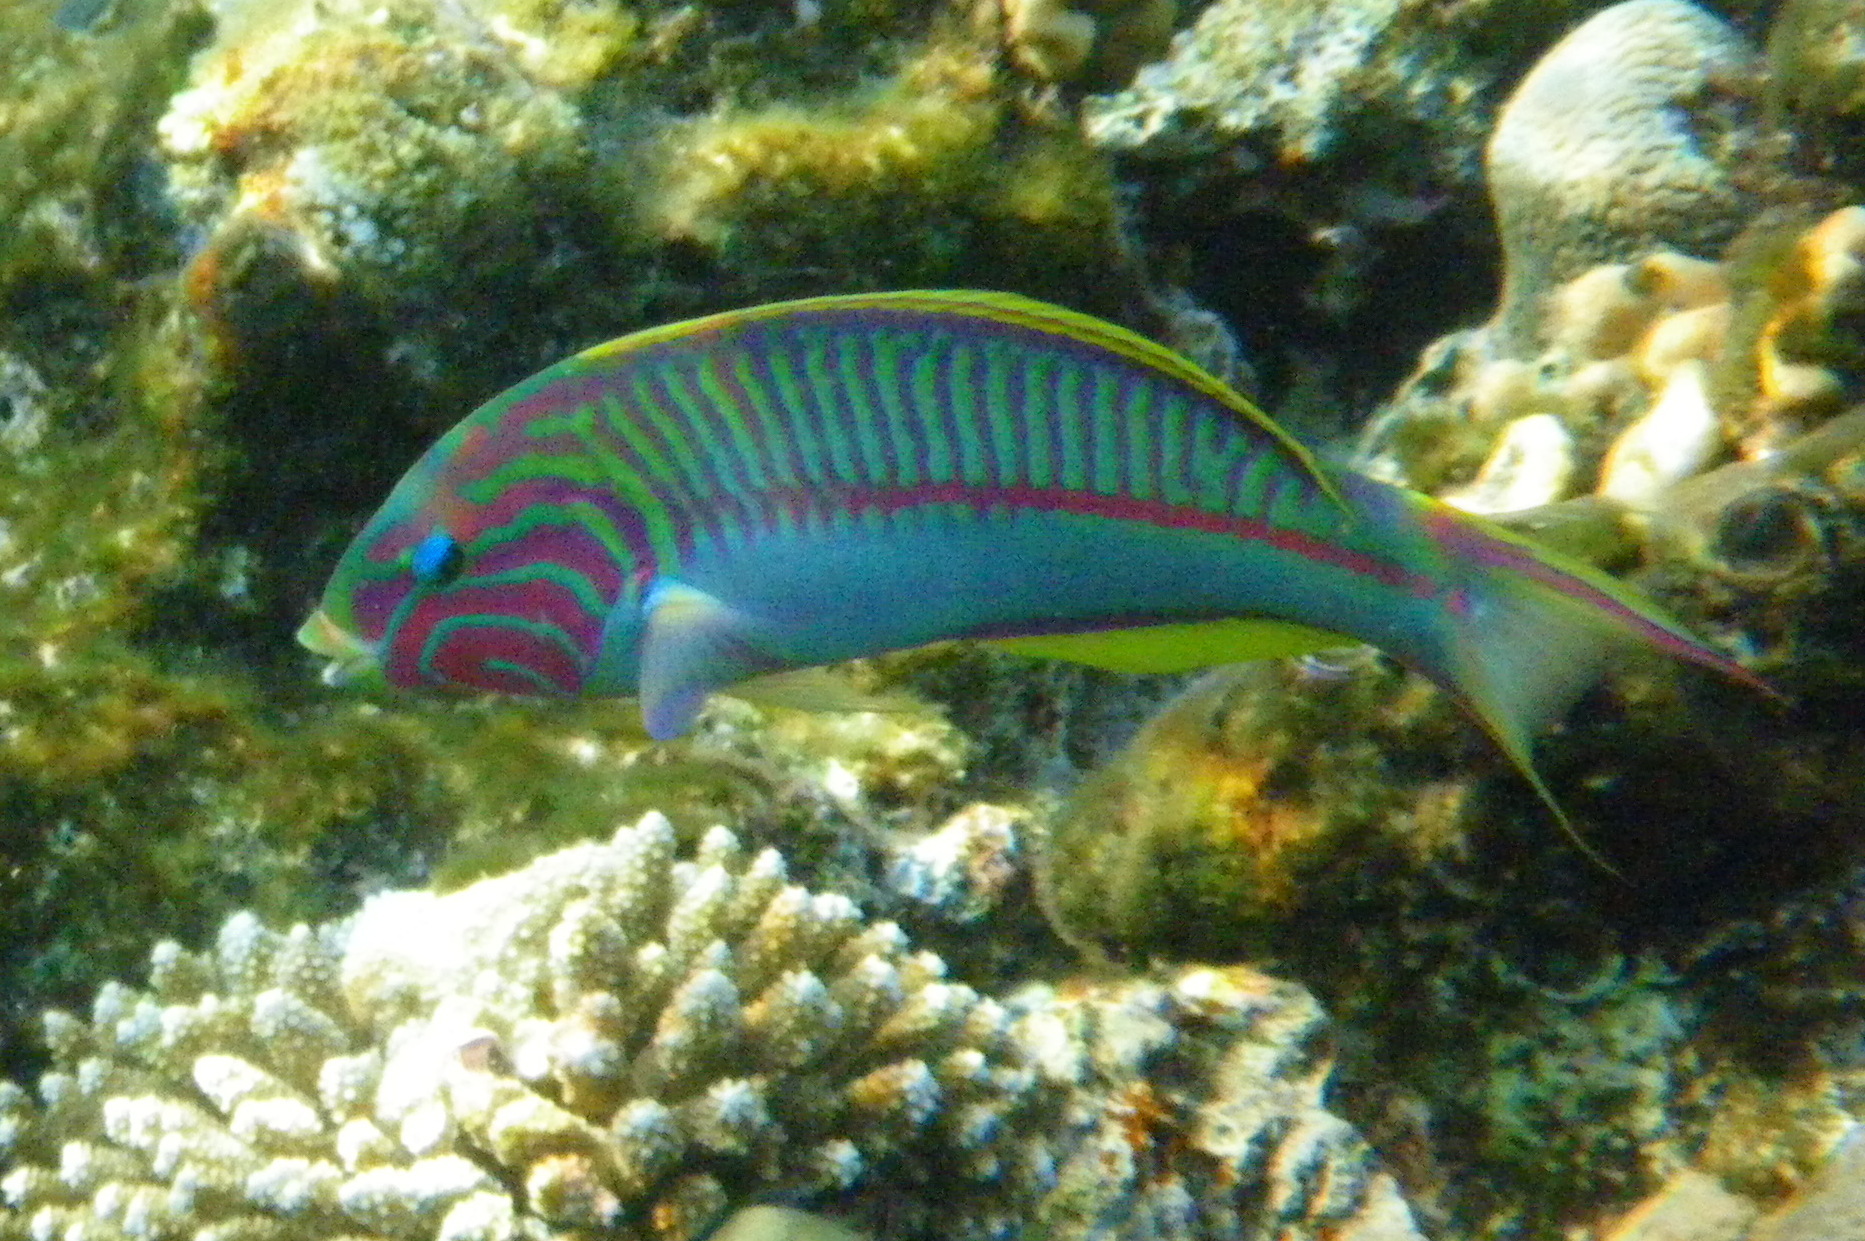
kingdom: Animalia
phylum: Chordata
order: Perciformes
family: Labridae
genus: Thalassoma
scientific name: Thalassoma rueppellii
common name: Klunzinger's wrasse
